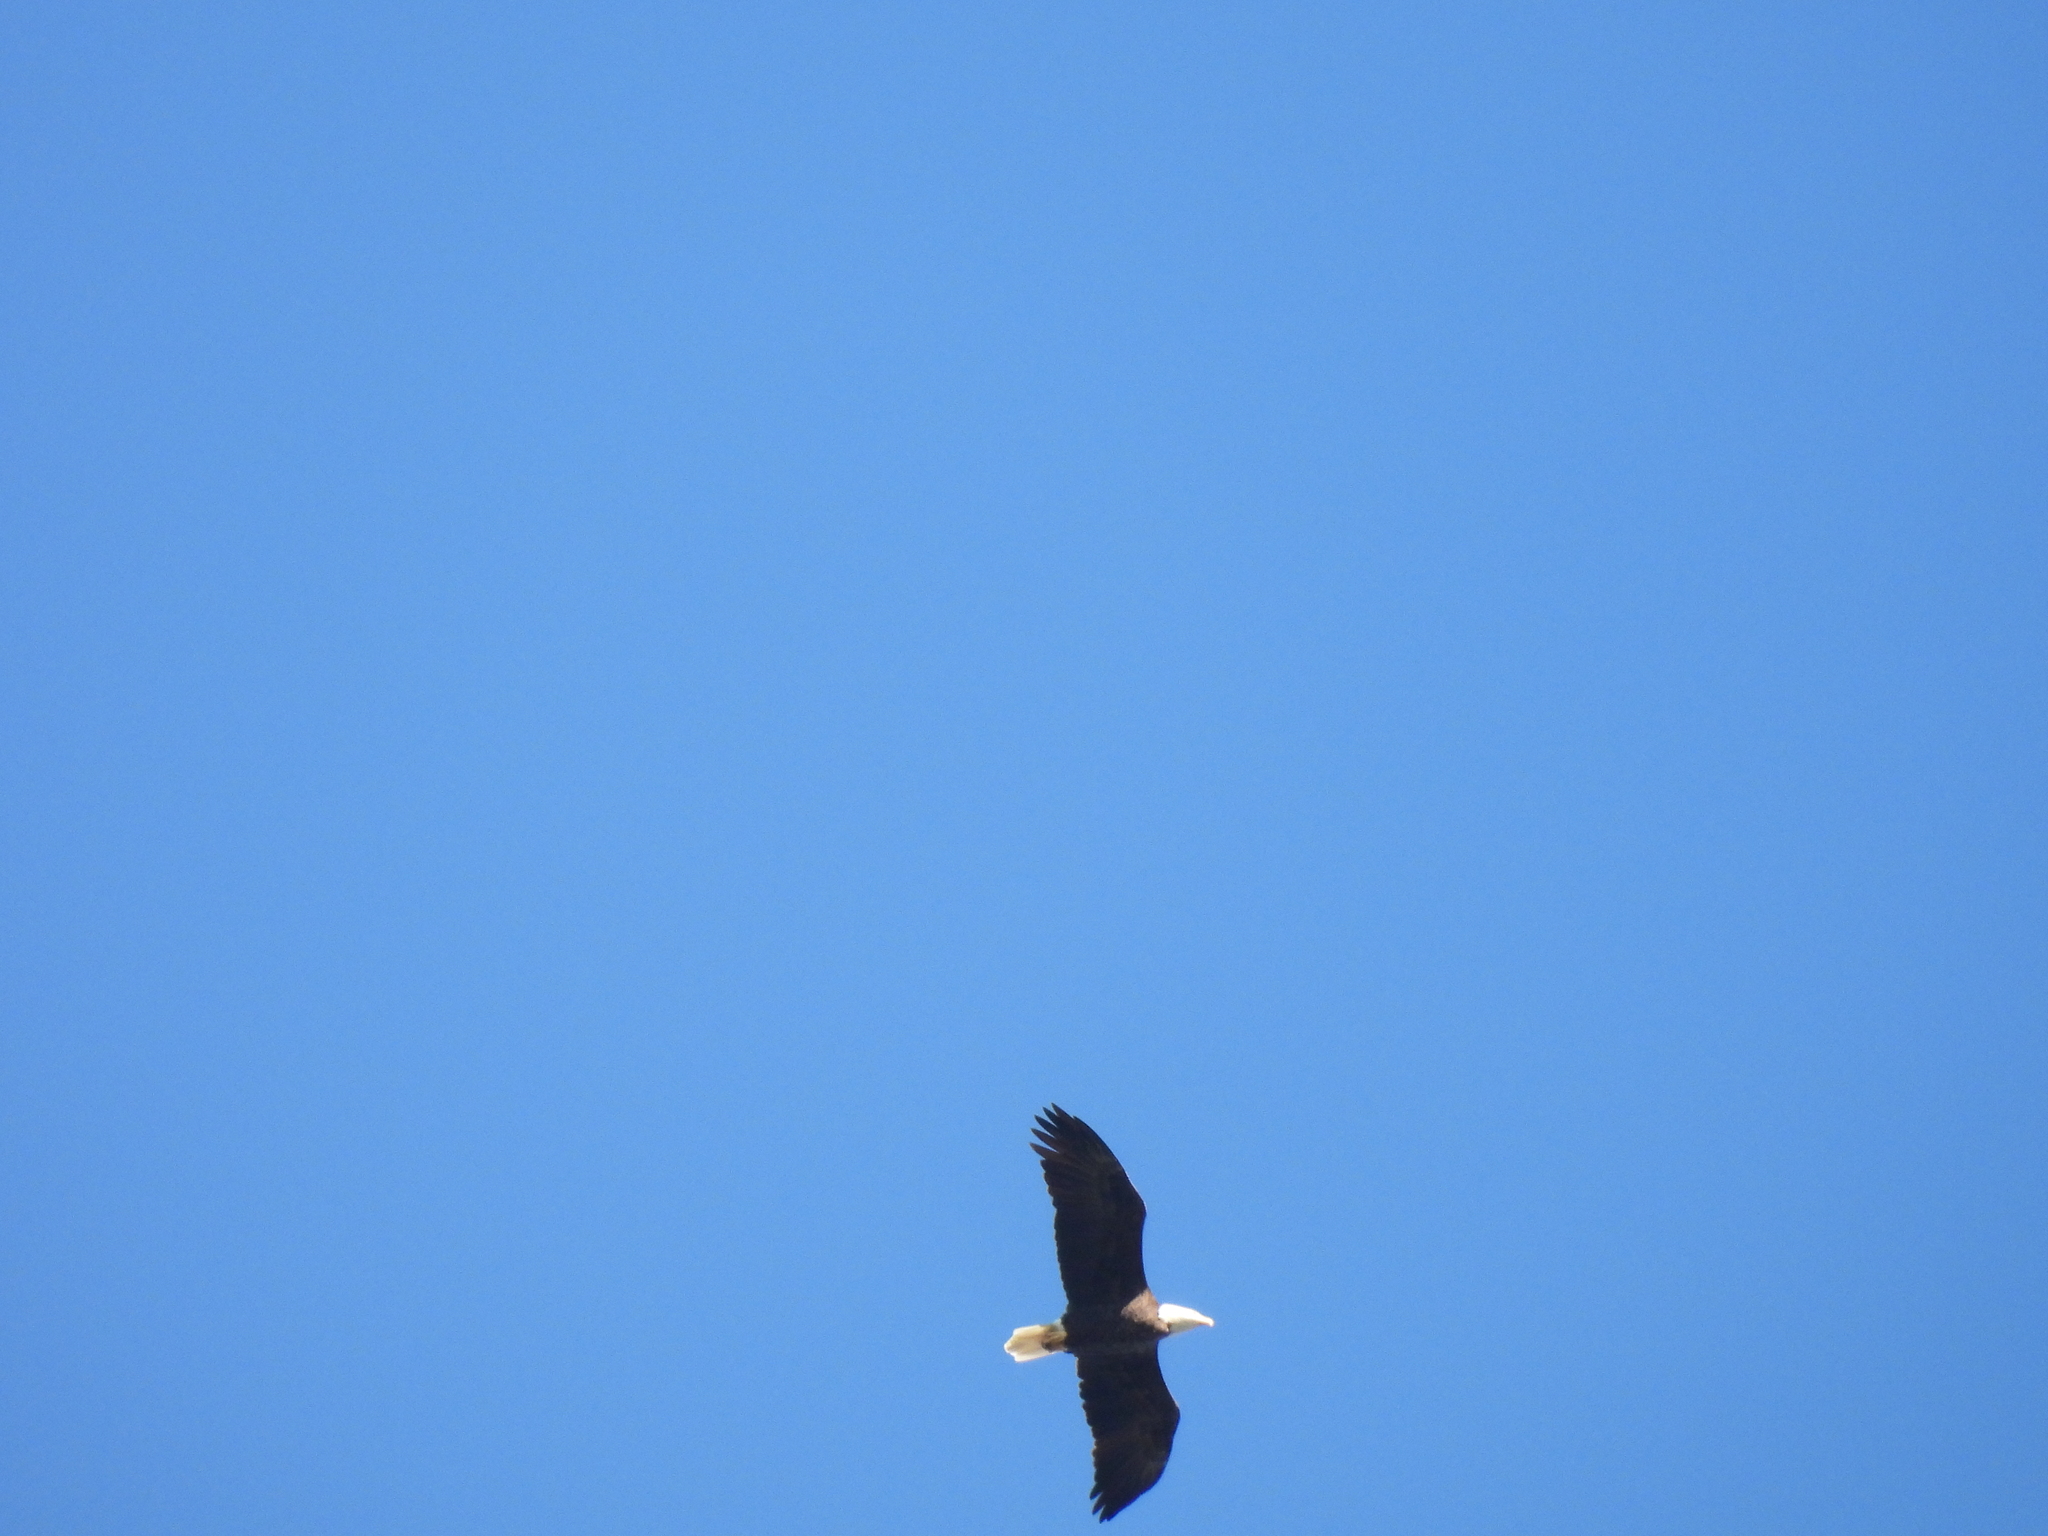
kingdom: Animalia
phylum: Chordata
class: Aves
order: Accipitriformes
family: Accipitridae
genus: Haliaeetus
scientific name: Haliaeetus leucocephalus
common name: Bald eagle
